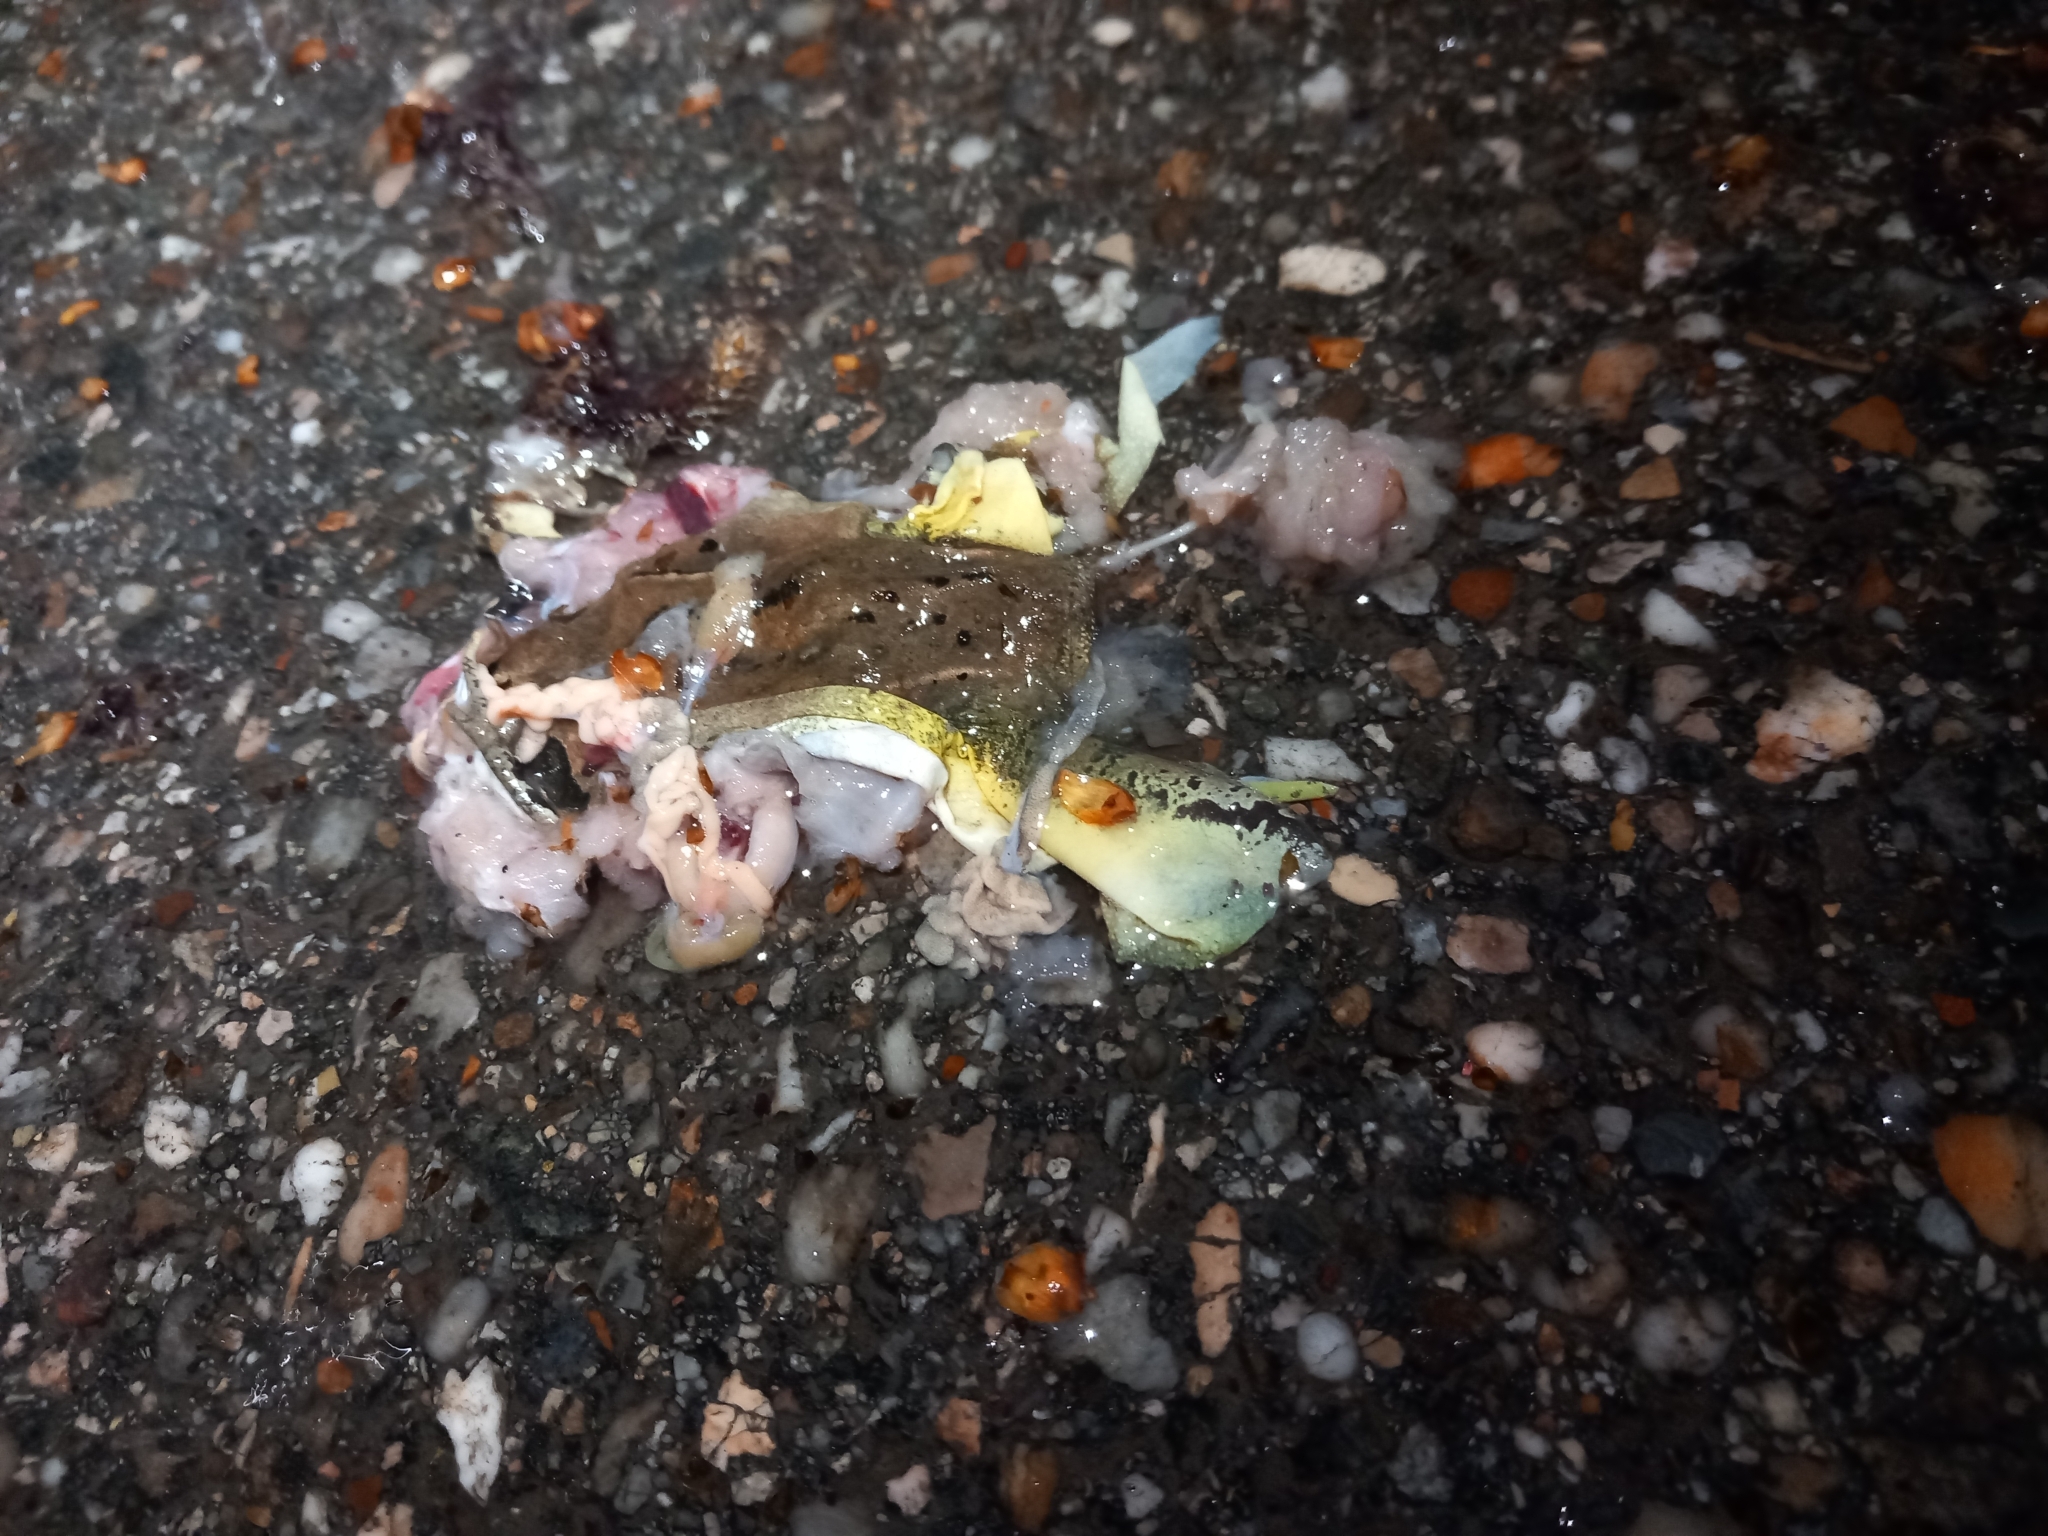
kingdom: Animalia
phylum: Chordata
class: Amphibia
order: Anura
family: Ranidae
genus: Rana
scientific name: Rana dalmatina
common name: Agile frog
